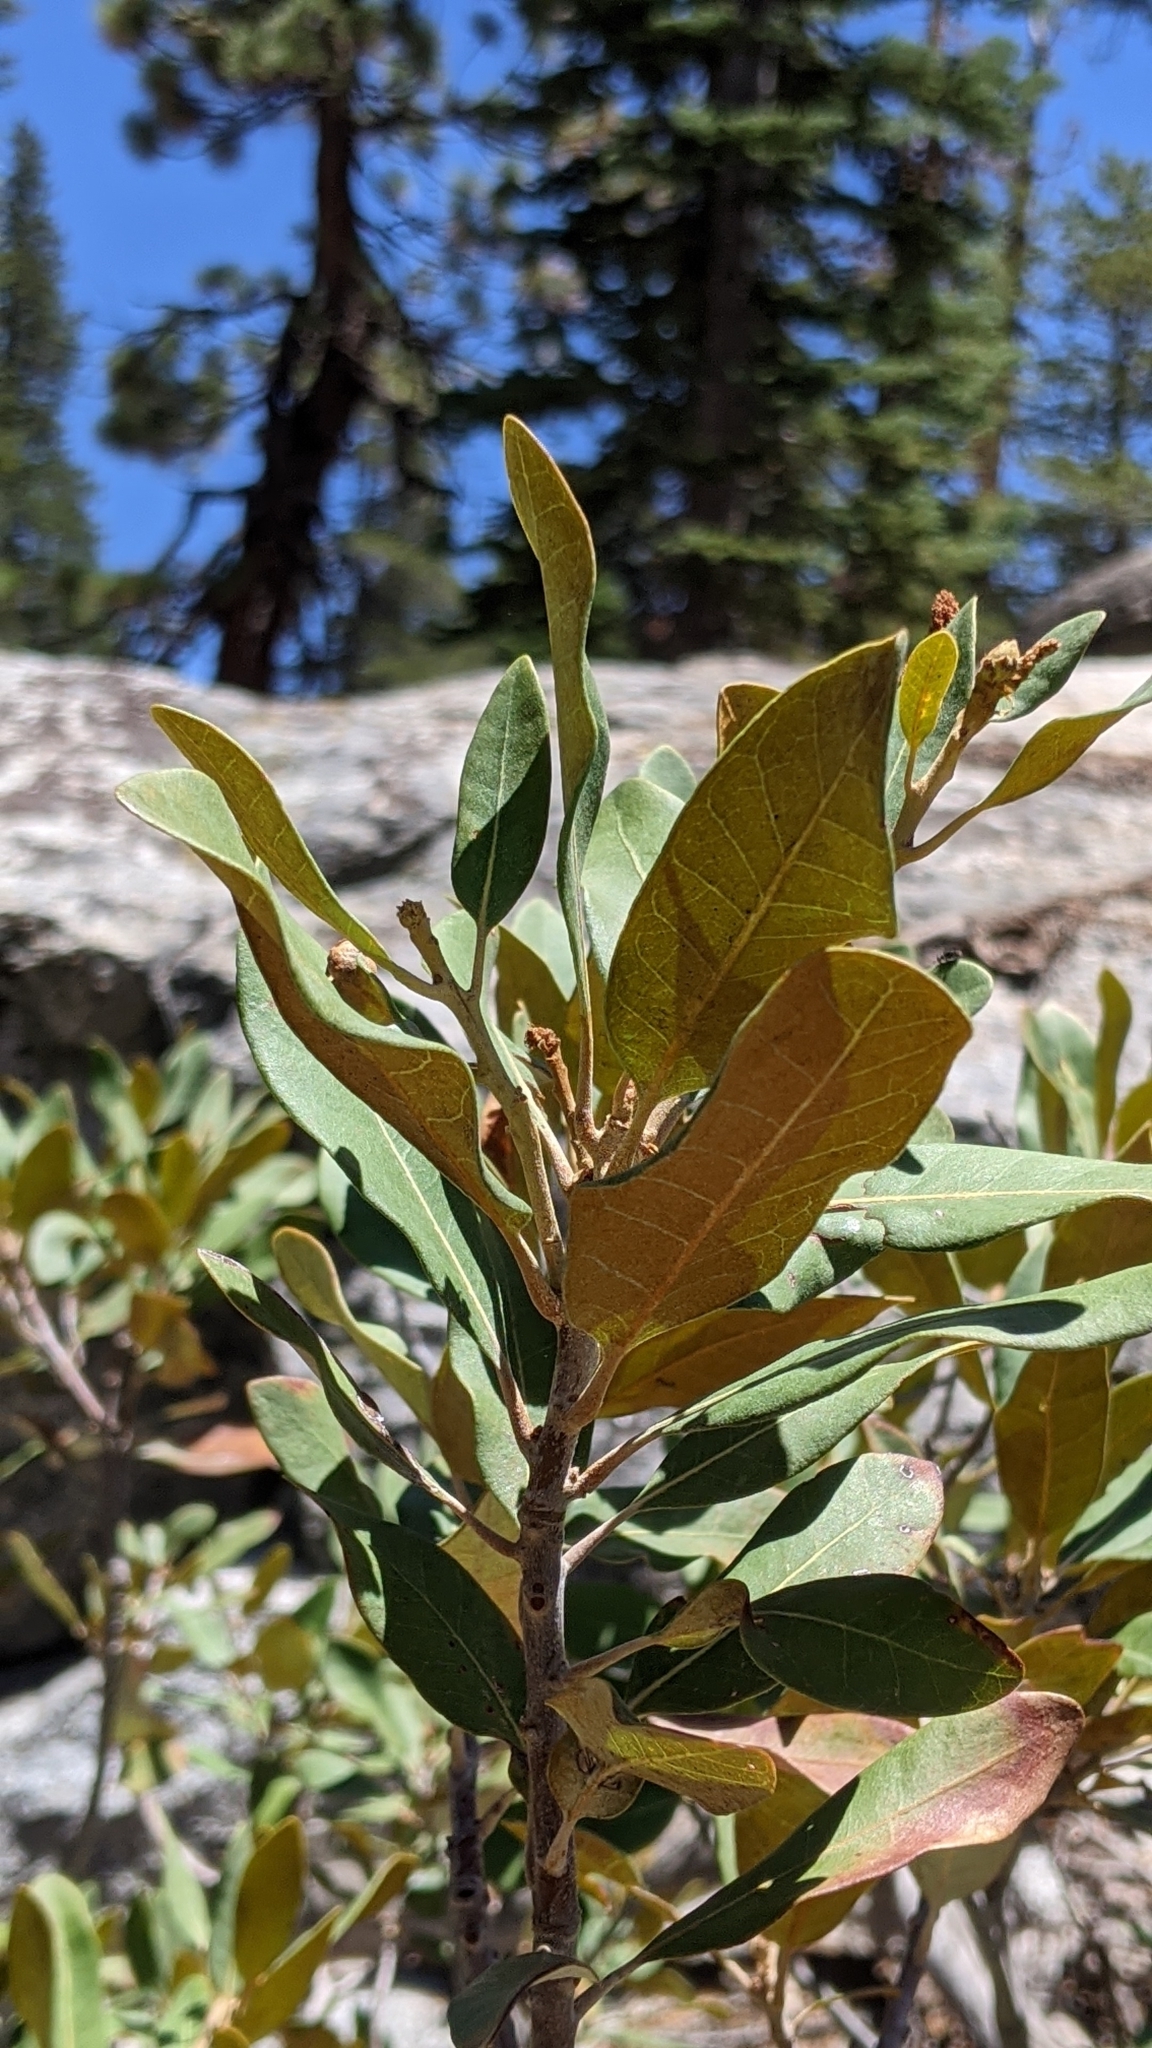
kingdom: Plantae
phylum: Tracheophyta
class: Magnoliopsida
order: Fagales
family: Fagaceae
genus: Chrysolepis
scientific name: Chrysolepis sempervirens
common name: Bush chinquapin
